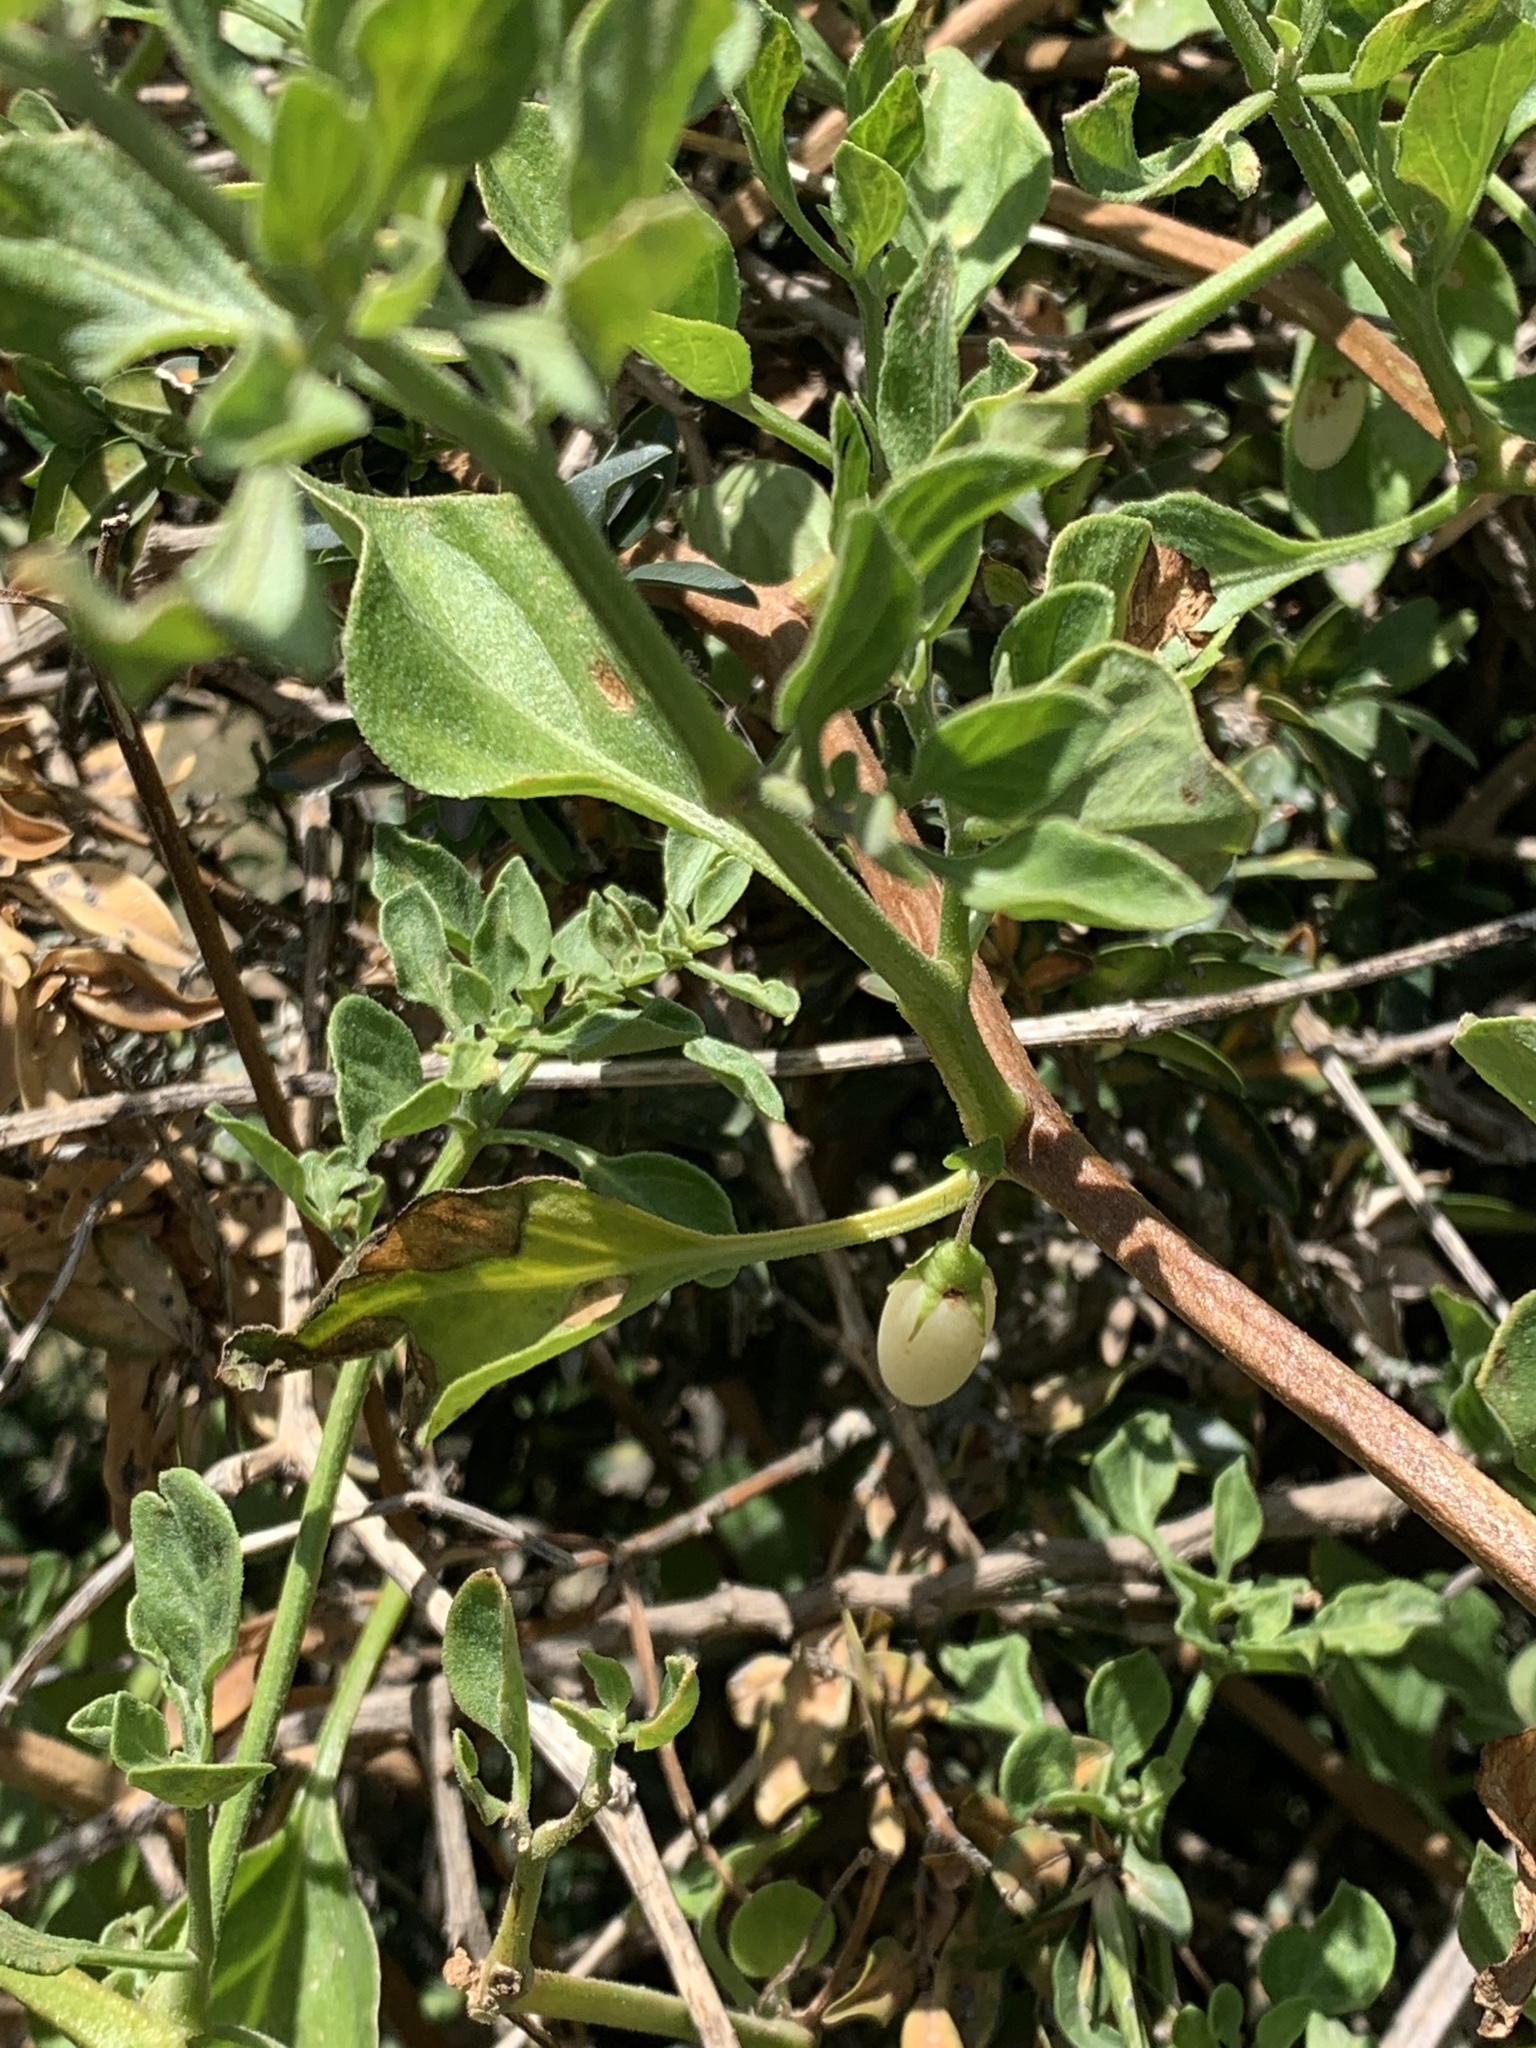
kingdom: Plantae
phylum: Tracheophyta
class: Magnoliopsida
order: Solanales
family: Solanaceae
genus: Salpichroa
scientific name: Salpichroa origanifolia
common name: Lily-of-the-valley-vine
